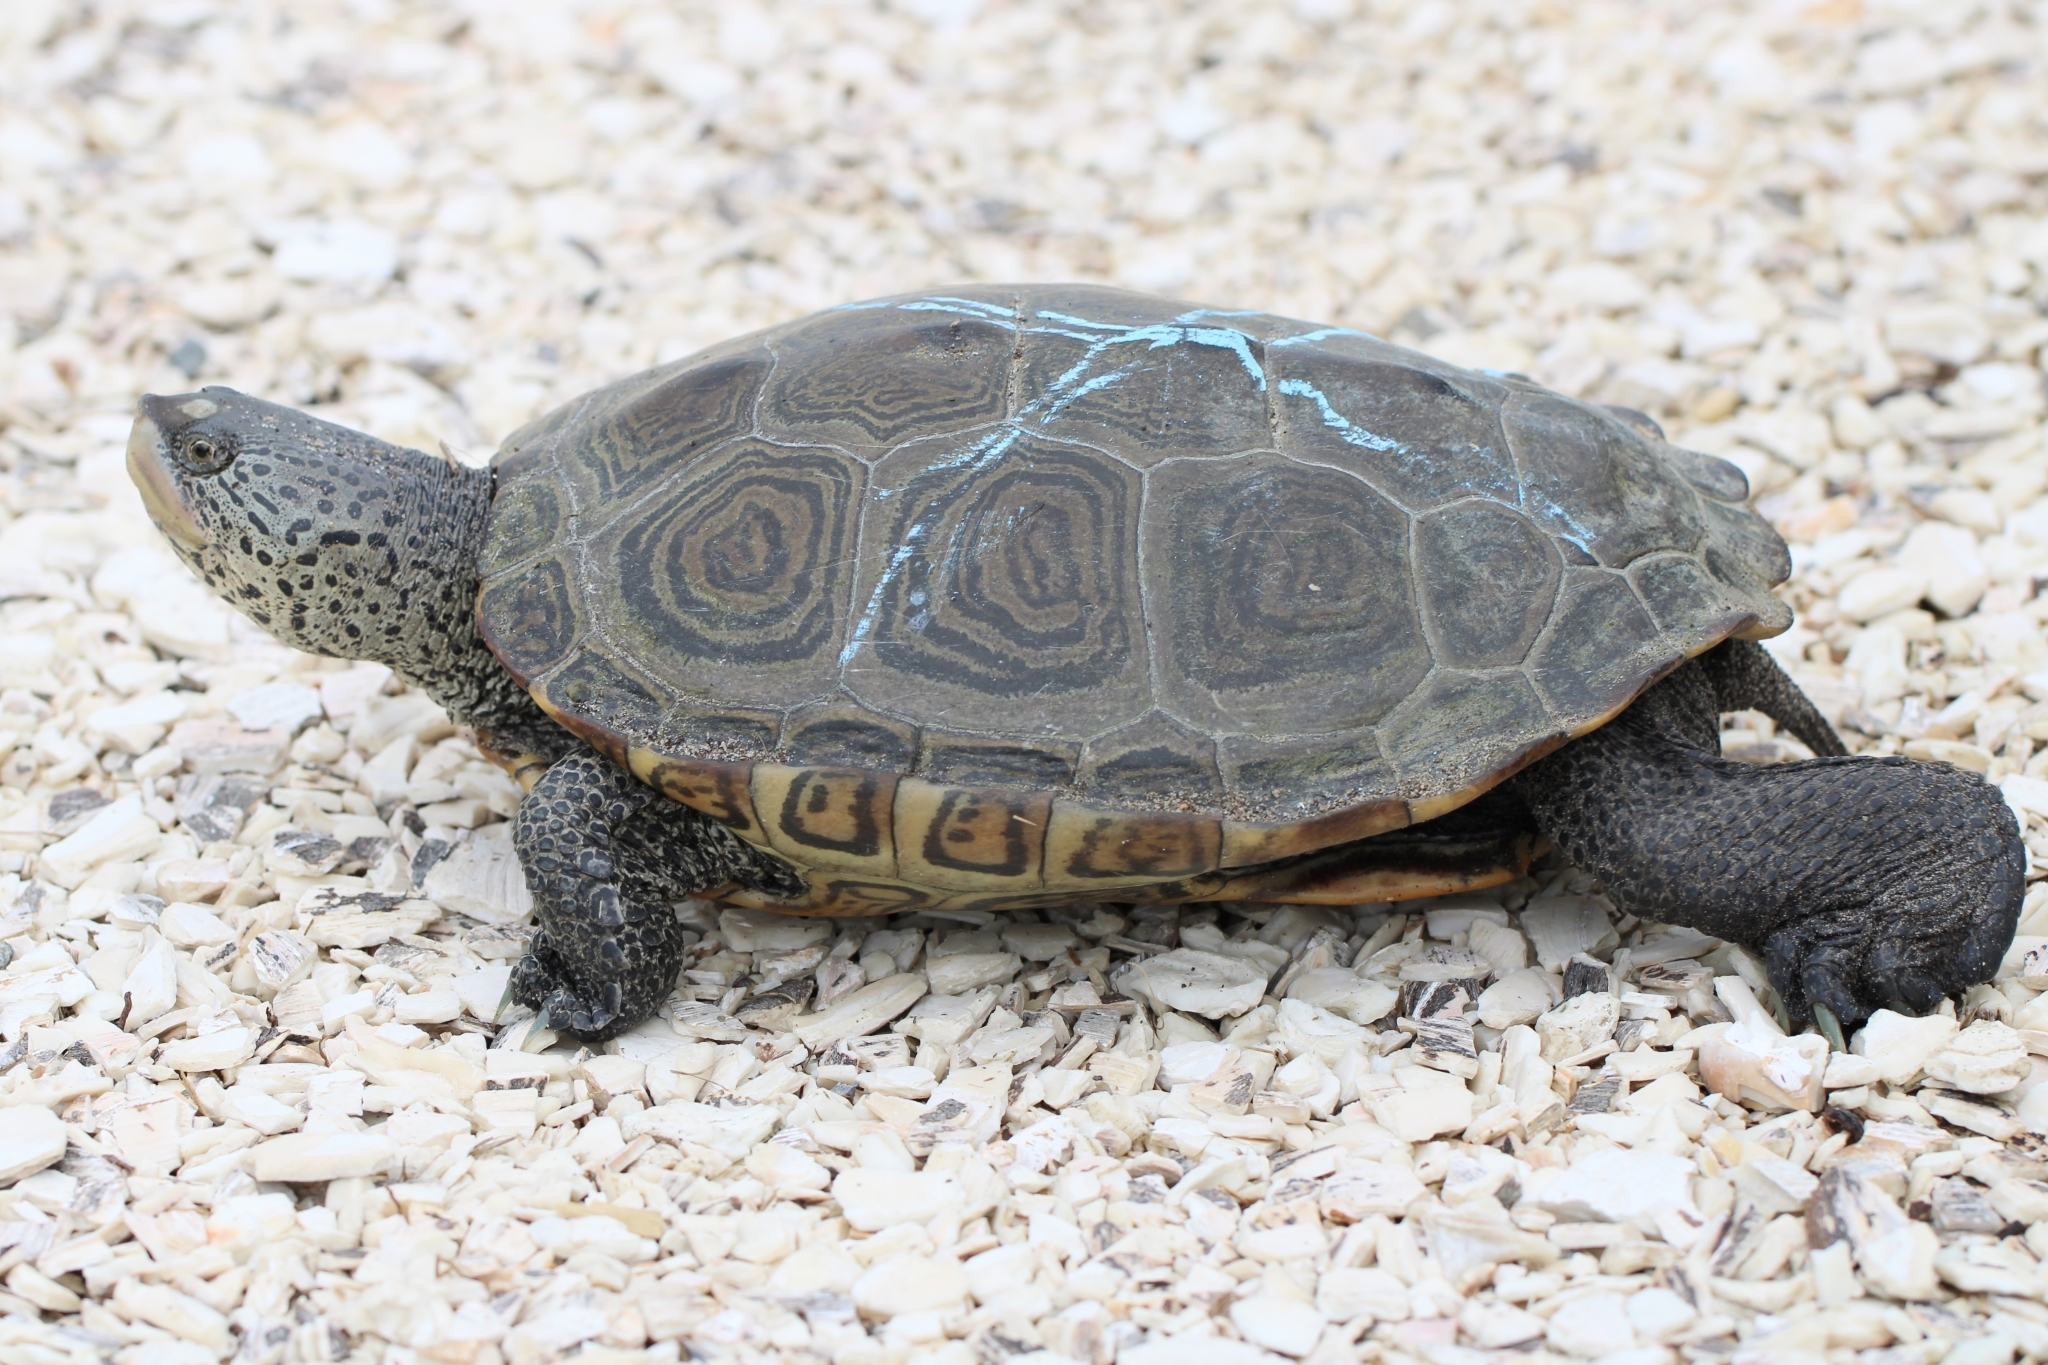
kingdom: Animalia
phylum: Chordata
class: Testudines
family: Emydidae
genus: Malaclemys
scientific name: Malaclemys terrapin
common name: Diamondback terrapin
